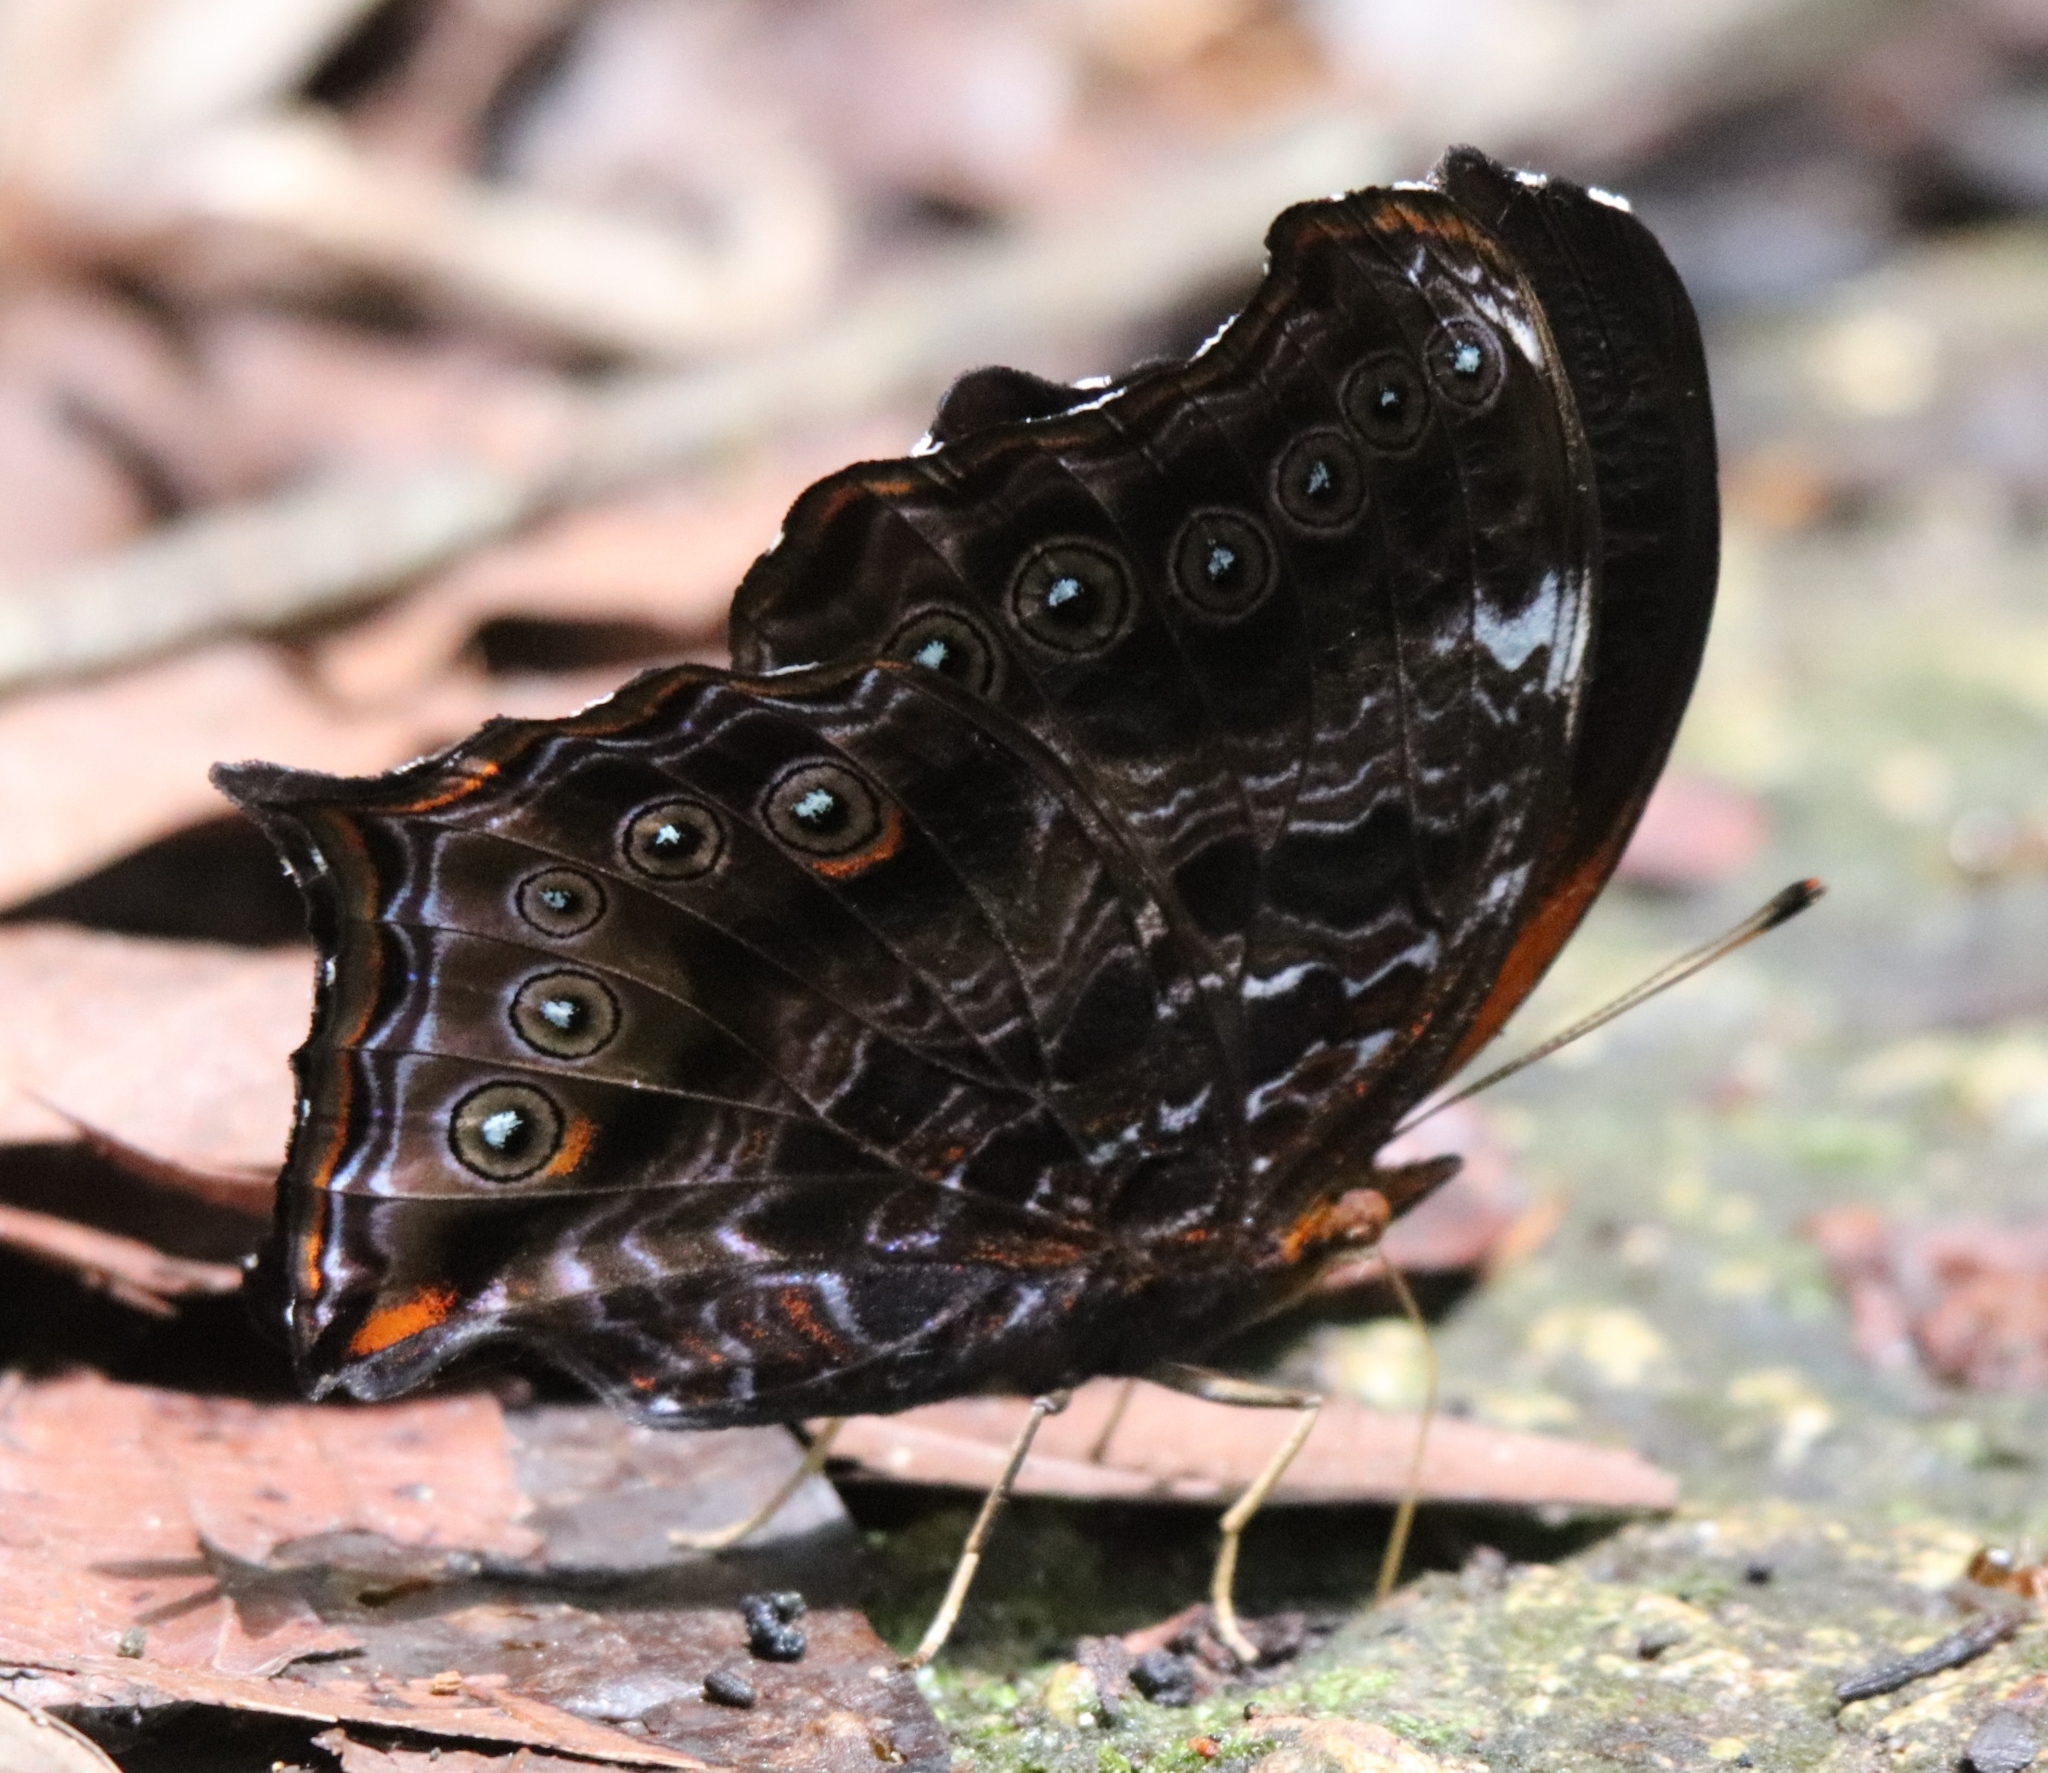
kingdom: Animalia
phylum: Arthropoda
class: Insecta
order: Lepidoptera
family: Nymphalidae
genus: Rhinopalpa
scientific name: Rhinopalpa polynice
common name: Wizard
